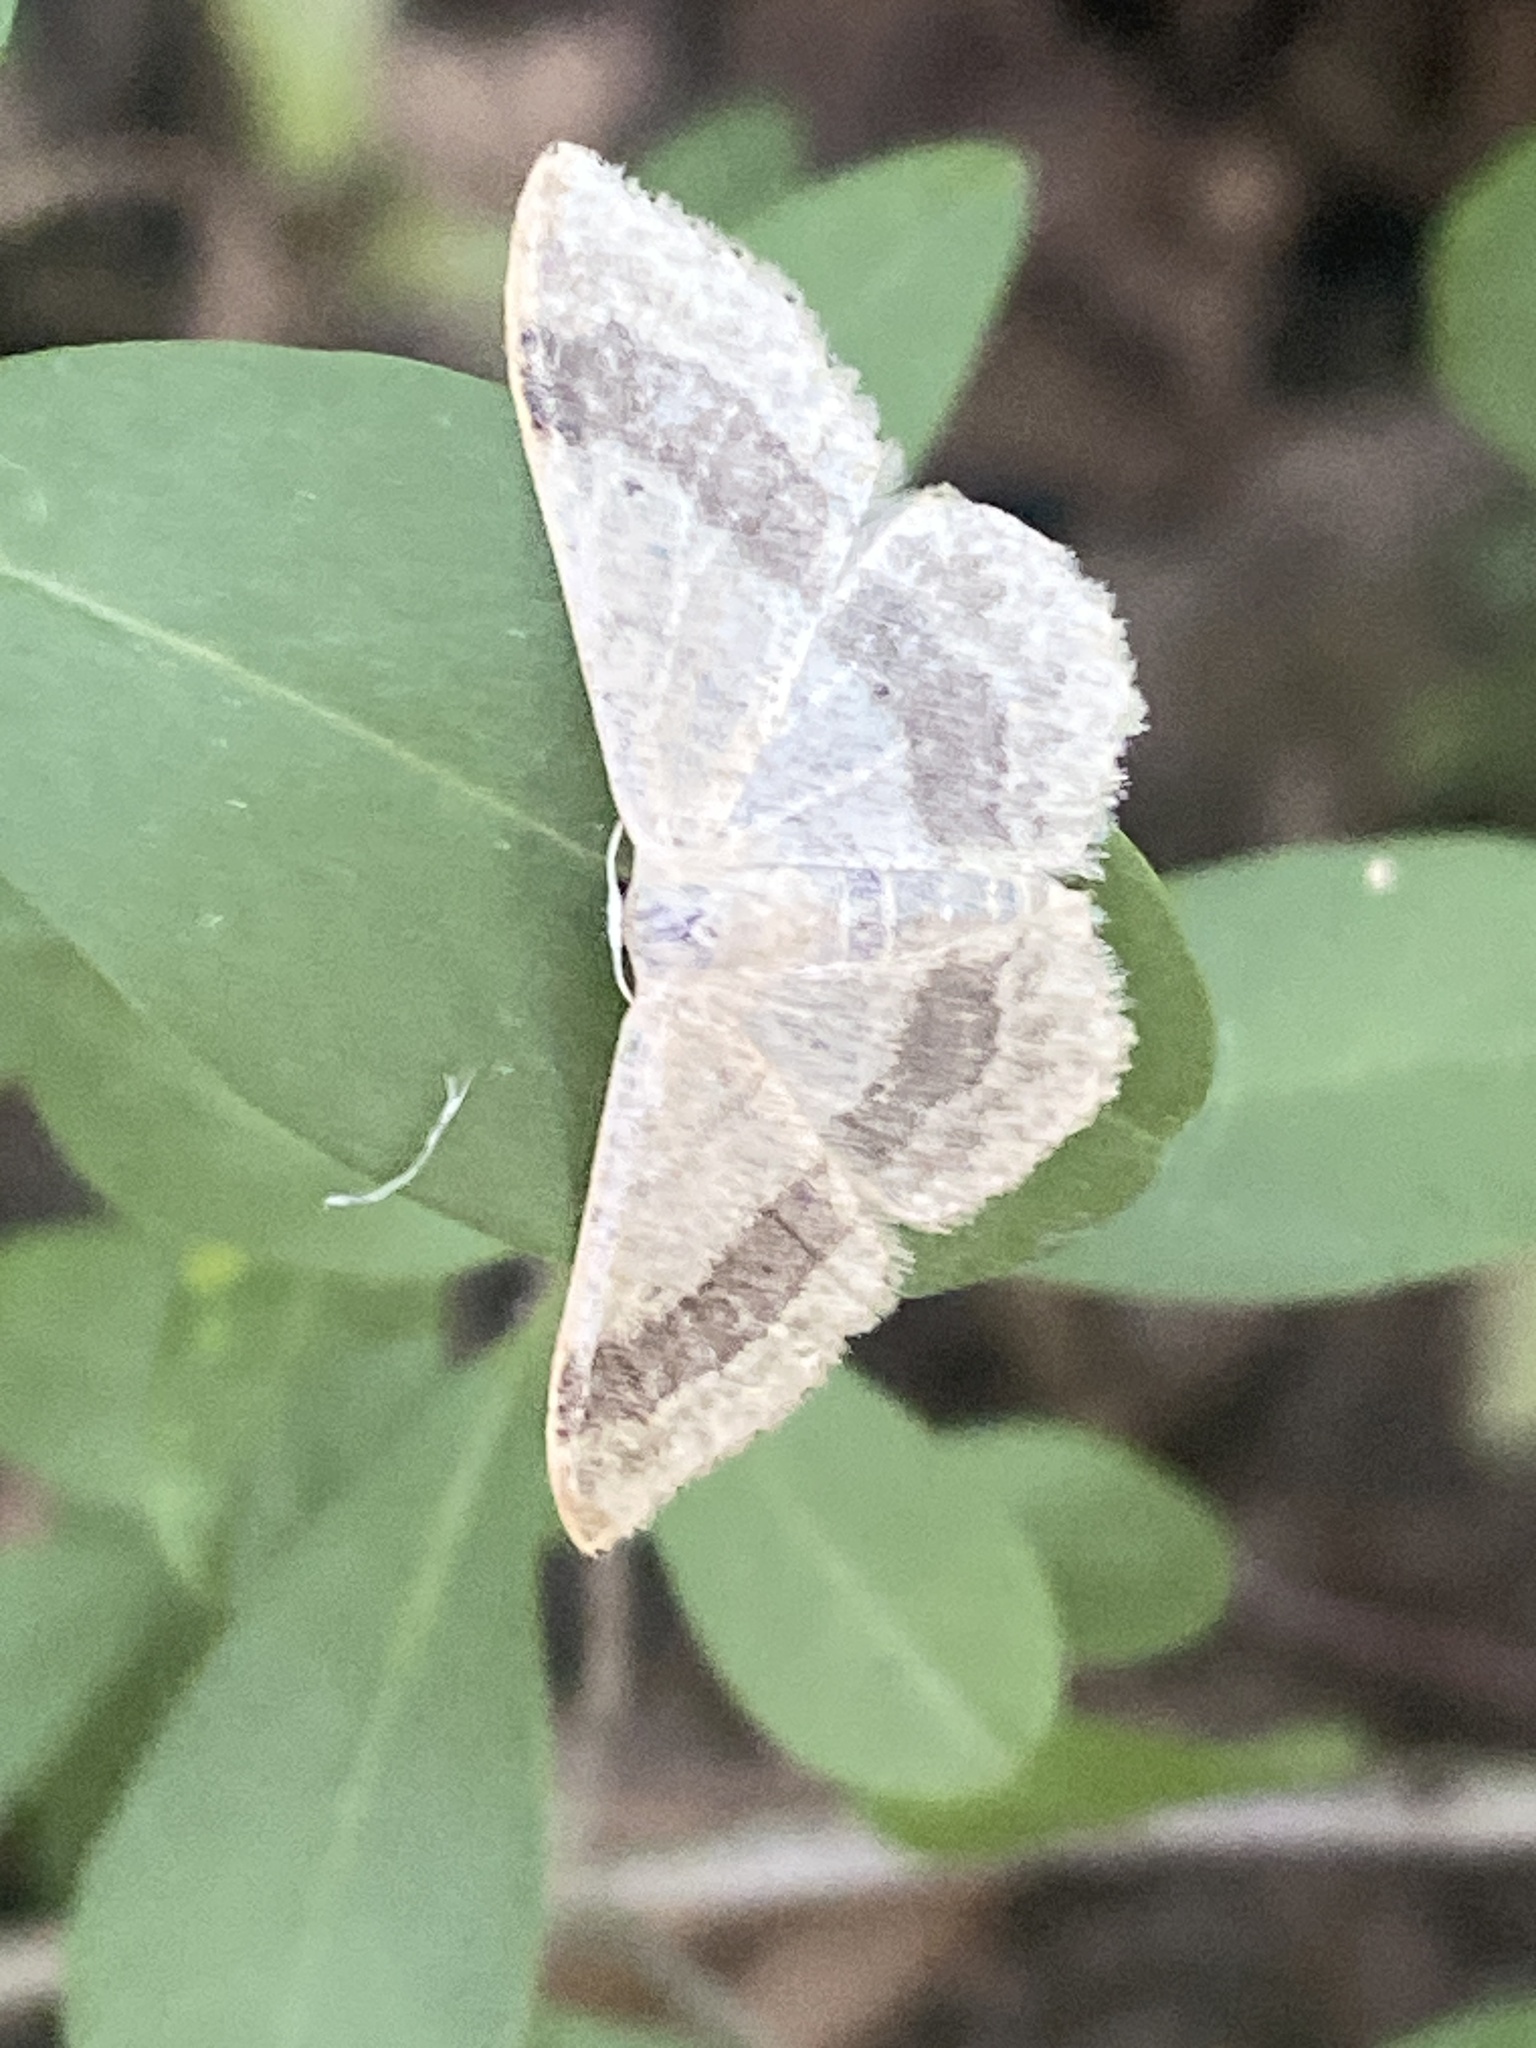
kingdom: Animalia
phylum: Arthropoda
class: Insecta
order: Lepidoptera
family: Geometridae
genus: Idaea
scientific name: Idaea aversata
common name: Riband wave
